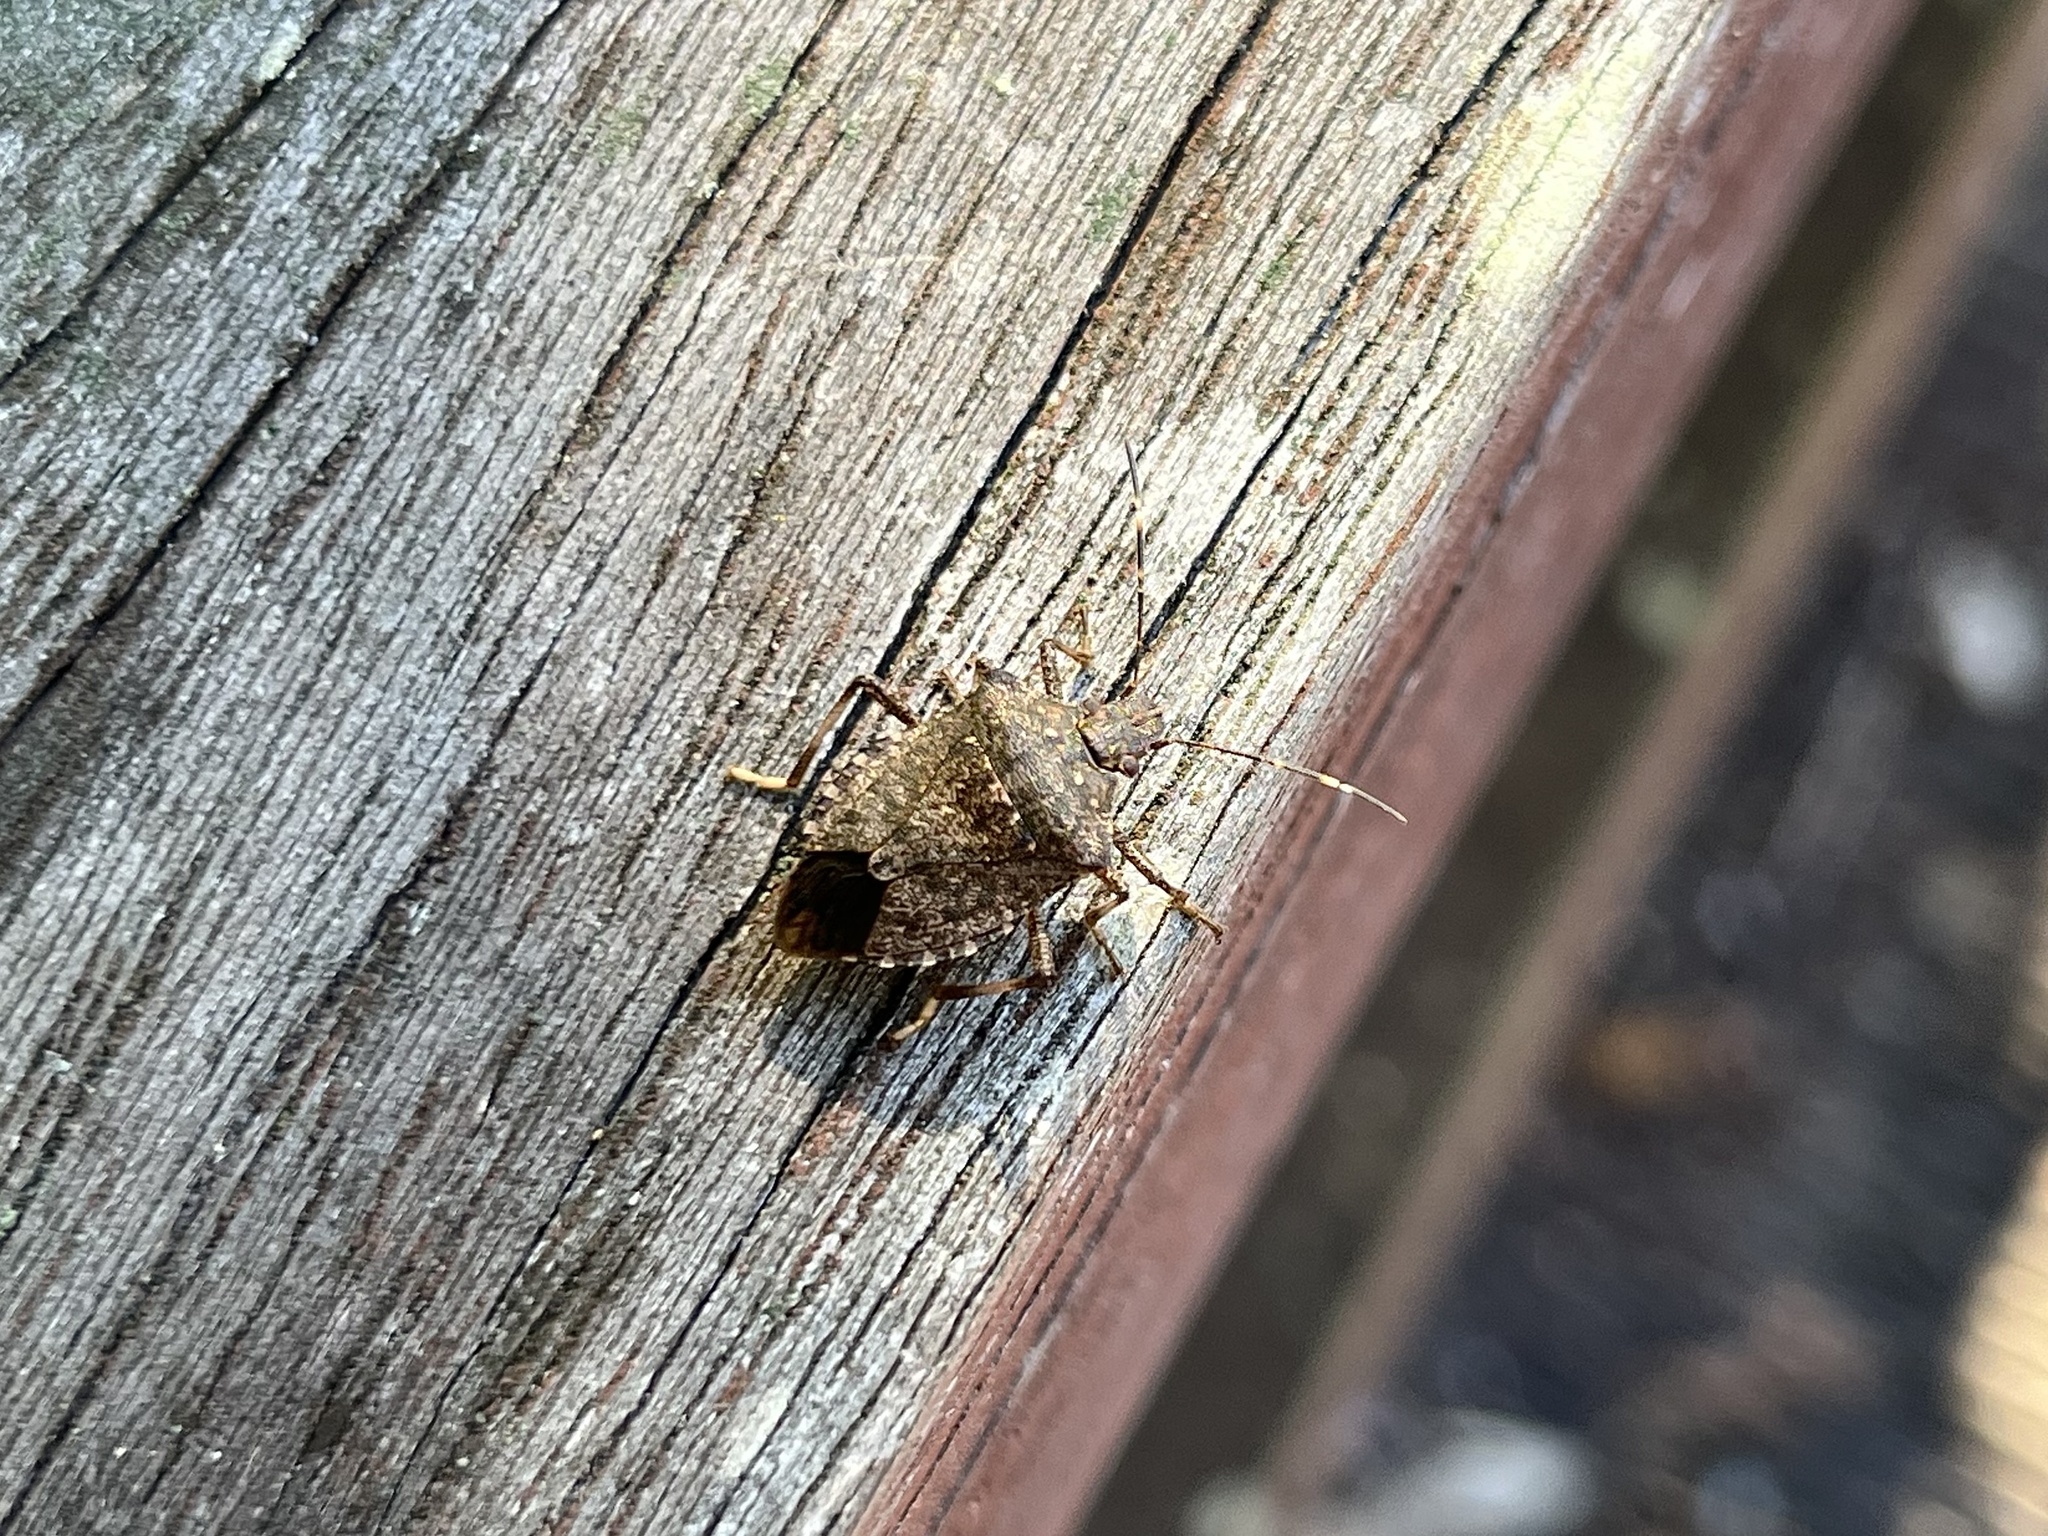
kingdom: Animalia
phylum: Arthropoda
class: Insecta
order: Hemiptera
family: Pentatomidae
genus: Halyomorpha
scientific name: Halyomorpha halys
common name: Brown marmorated stink bug
